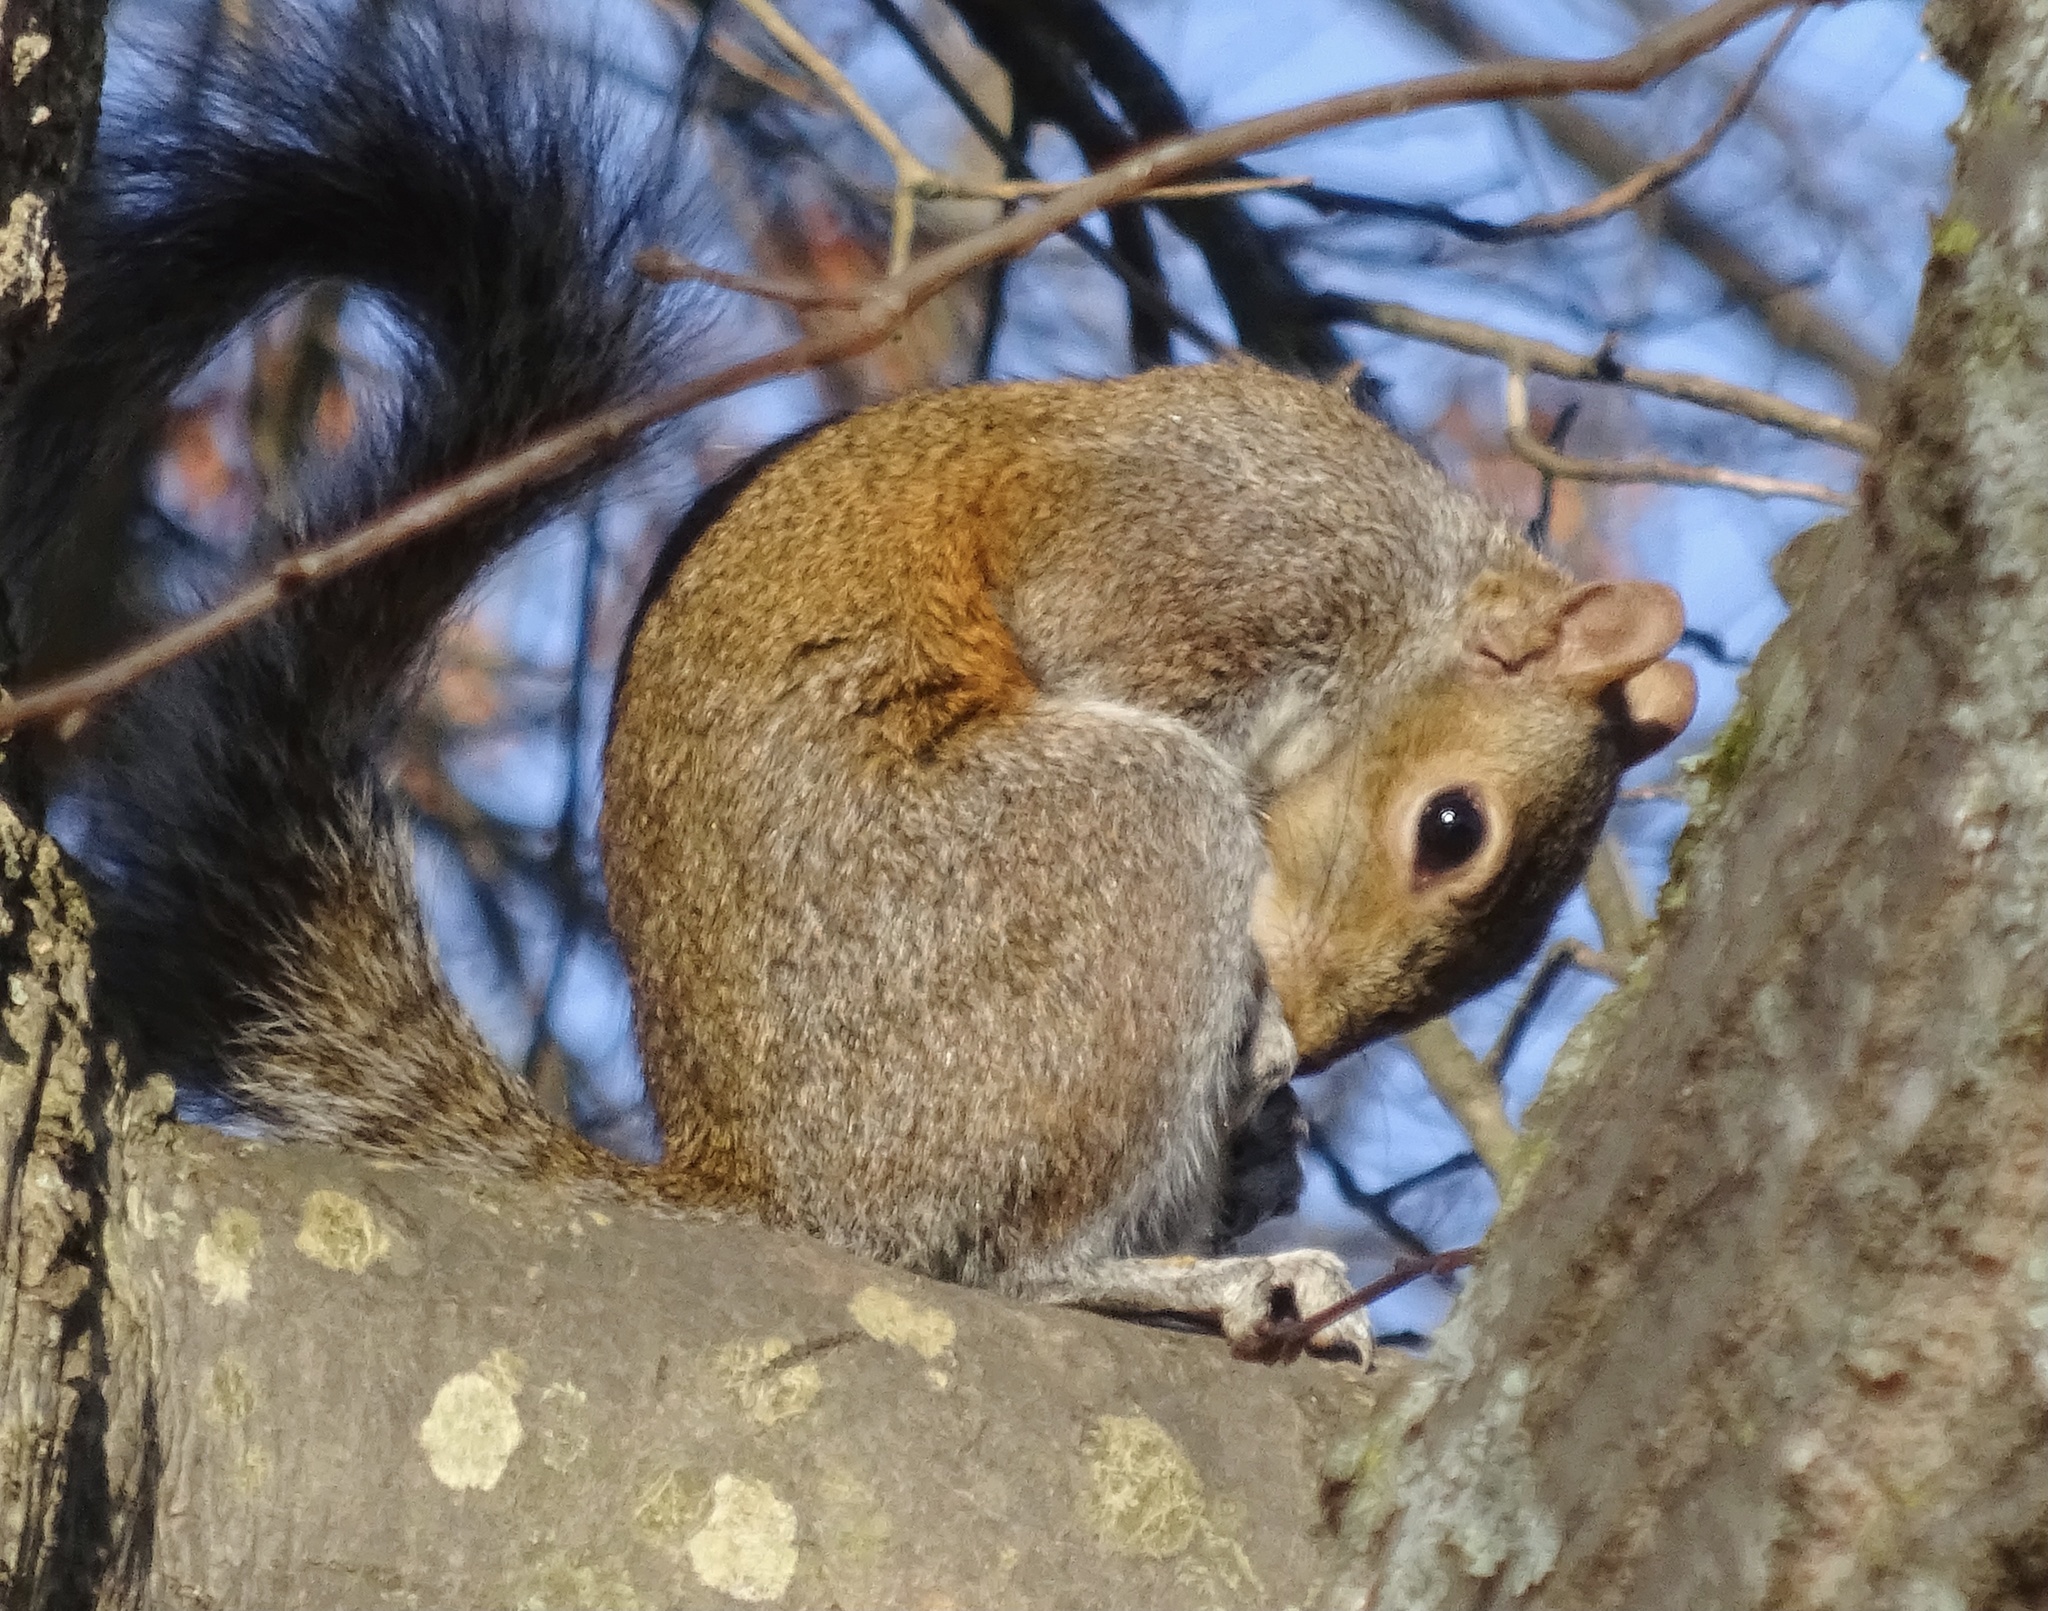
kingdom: Animalia
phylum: Chordata
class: Mammalia
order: Rodentia
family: Sciuridae
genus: Sciurus
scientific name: Sciurus carolinensis
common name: Eastern gray squirrel
